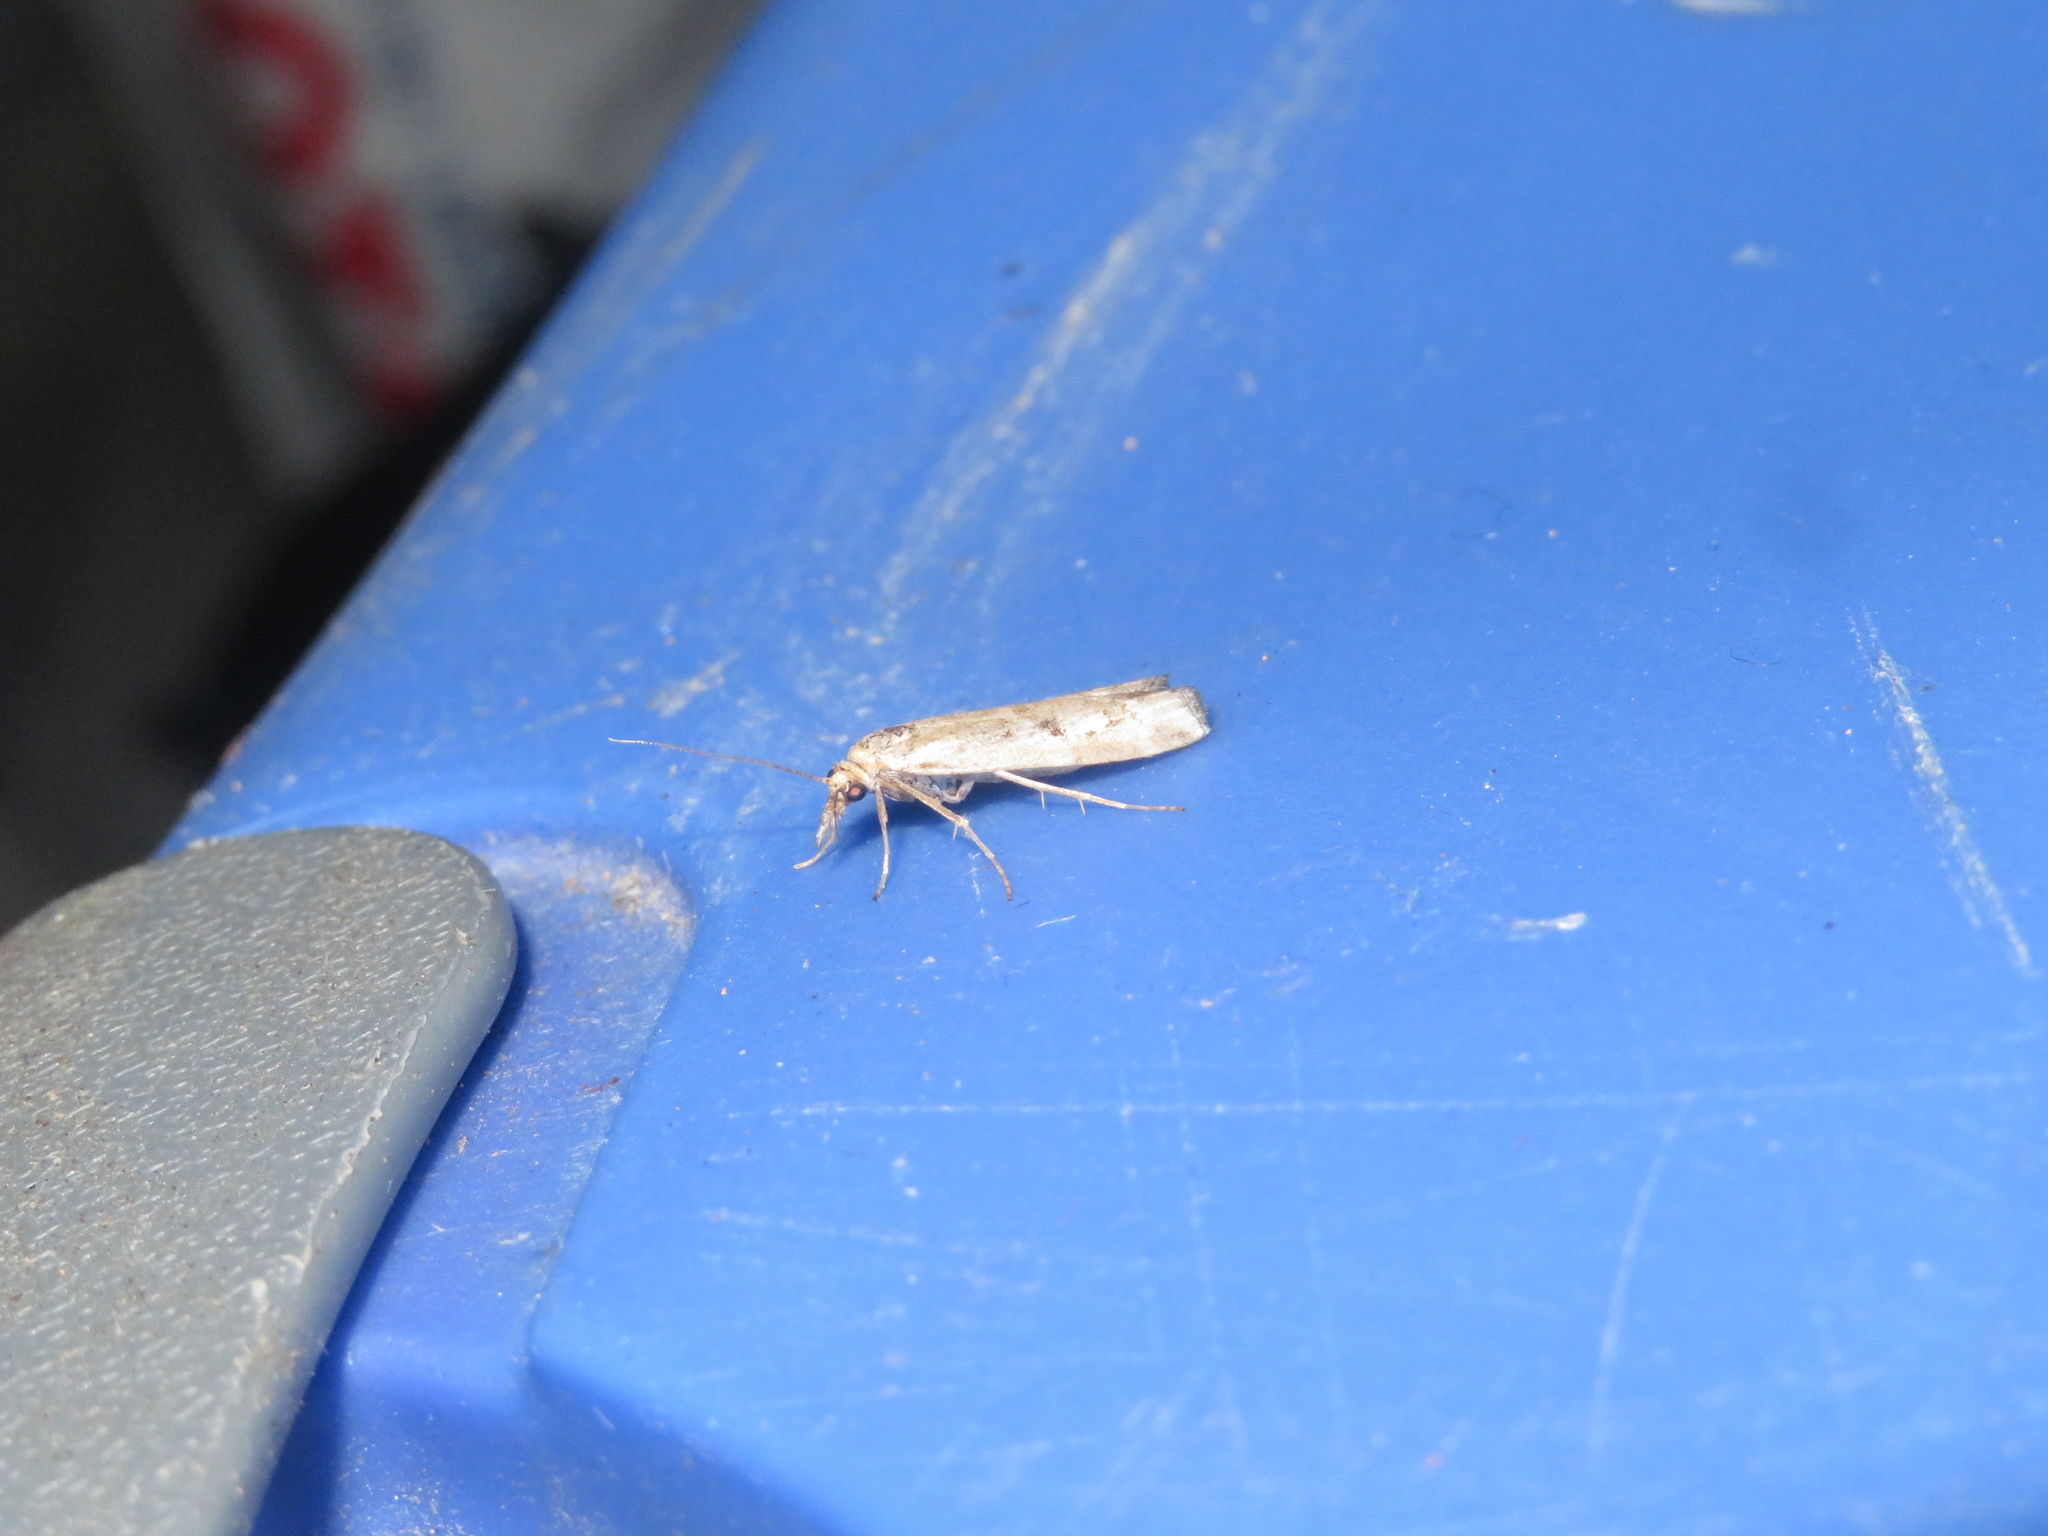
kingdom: Animalia
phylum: Arthropoda
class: Insecta
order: Lepidoptera
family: Crambidae
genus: Orocrambus
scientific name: Orocrambus vulgaris
